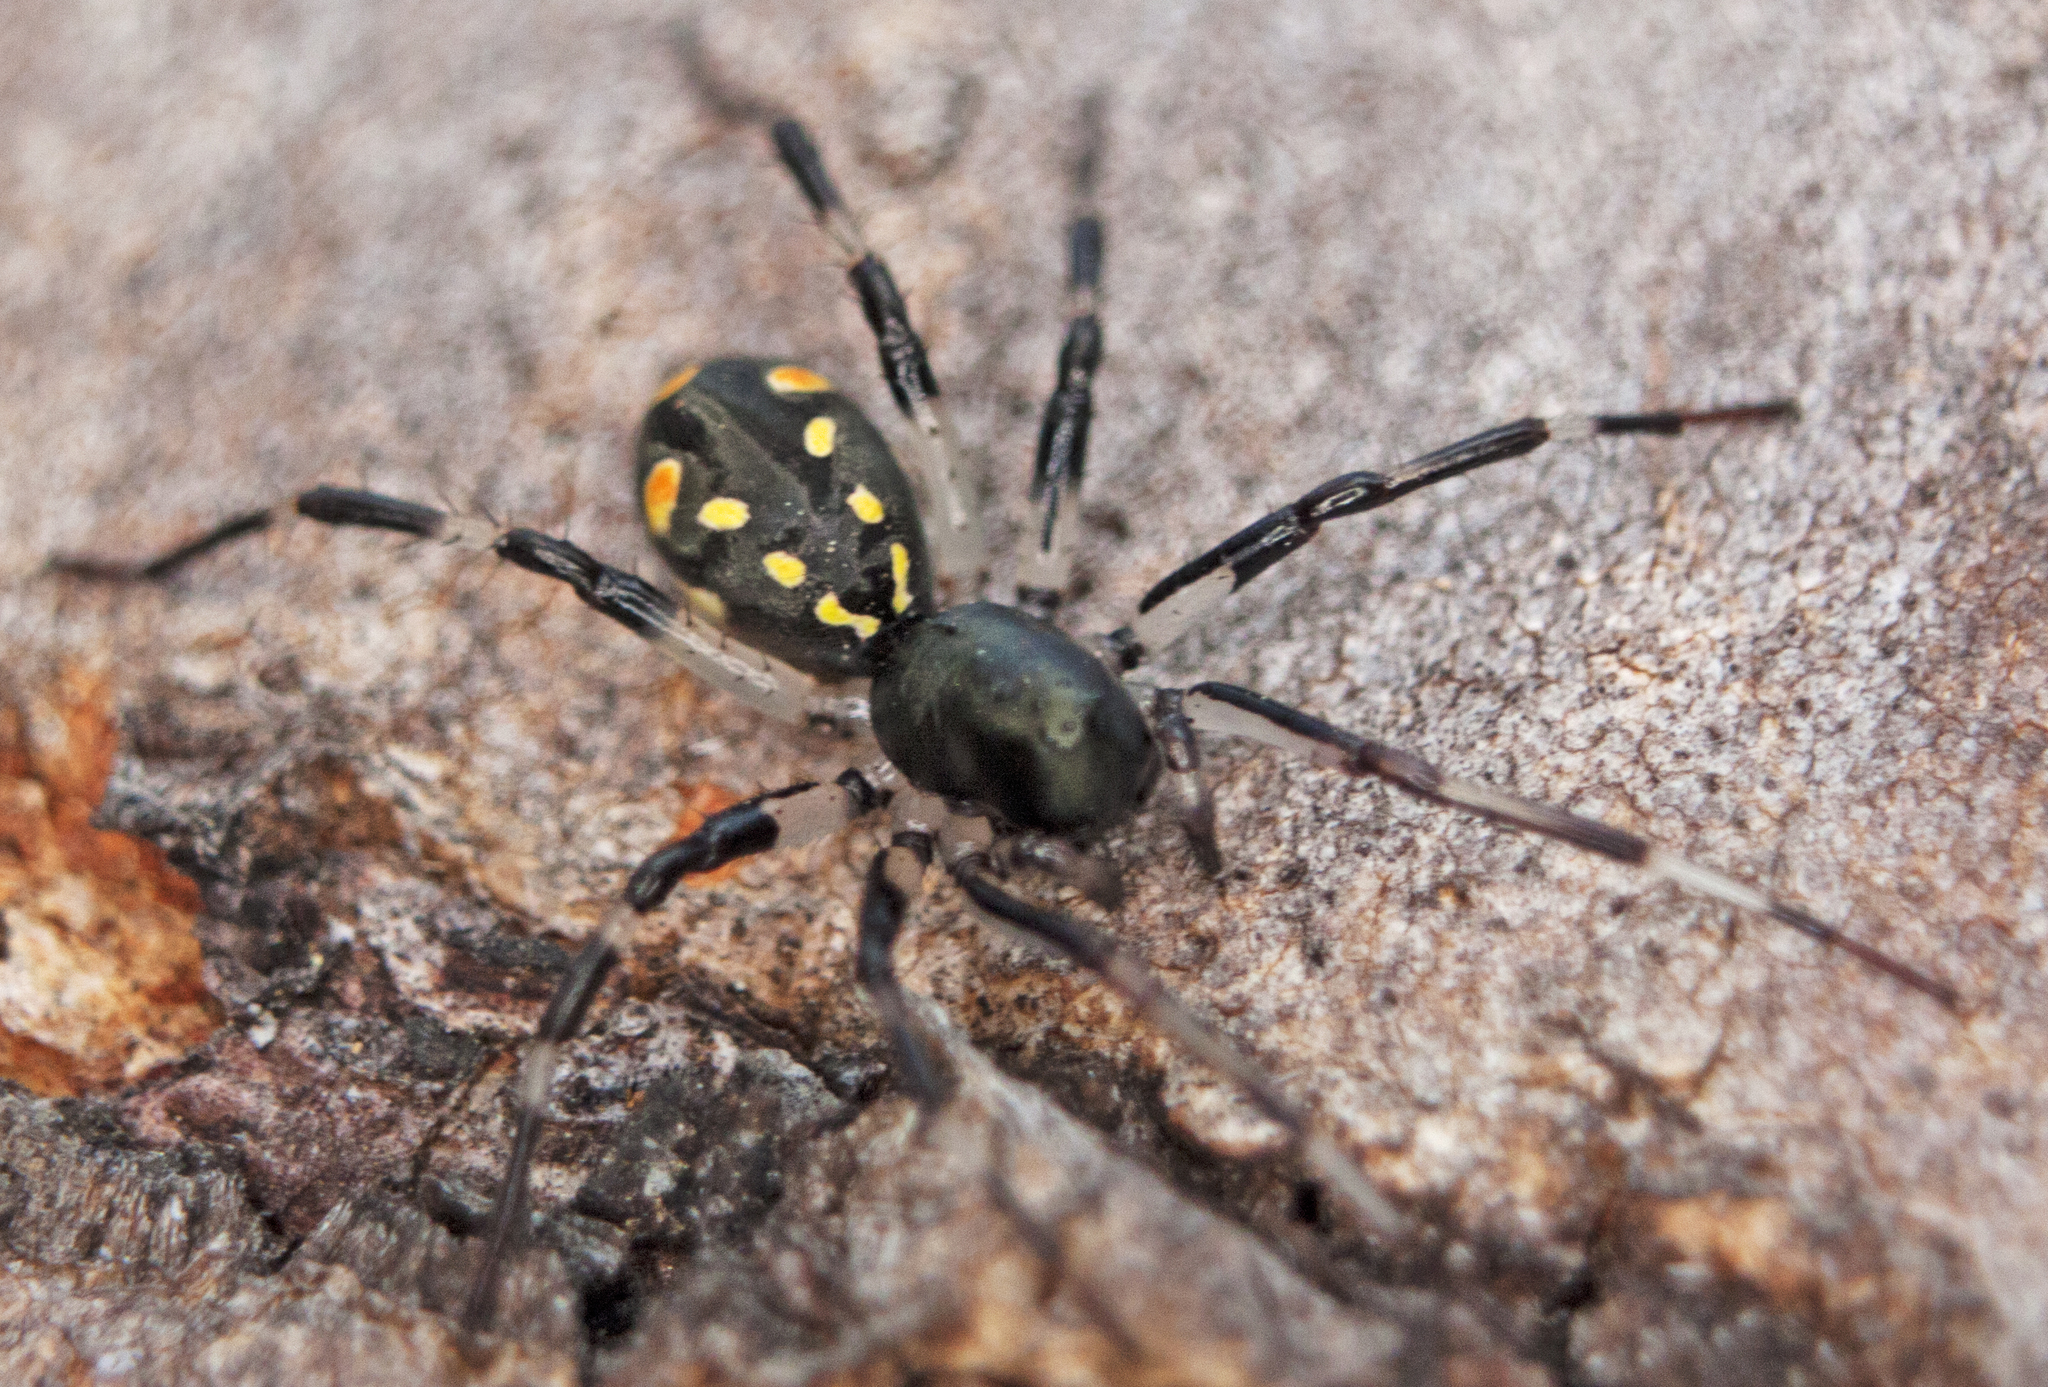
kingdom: Animalia
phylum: Arthropoda
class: Arachnida
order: Araneae
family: Zodariidae
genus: Subasteron
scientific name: Subasteron daviesae
